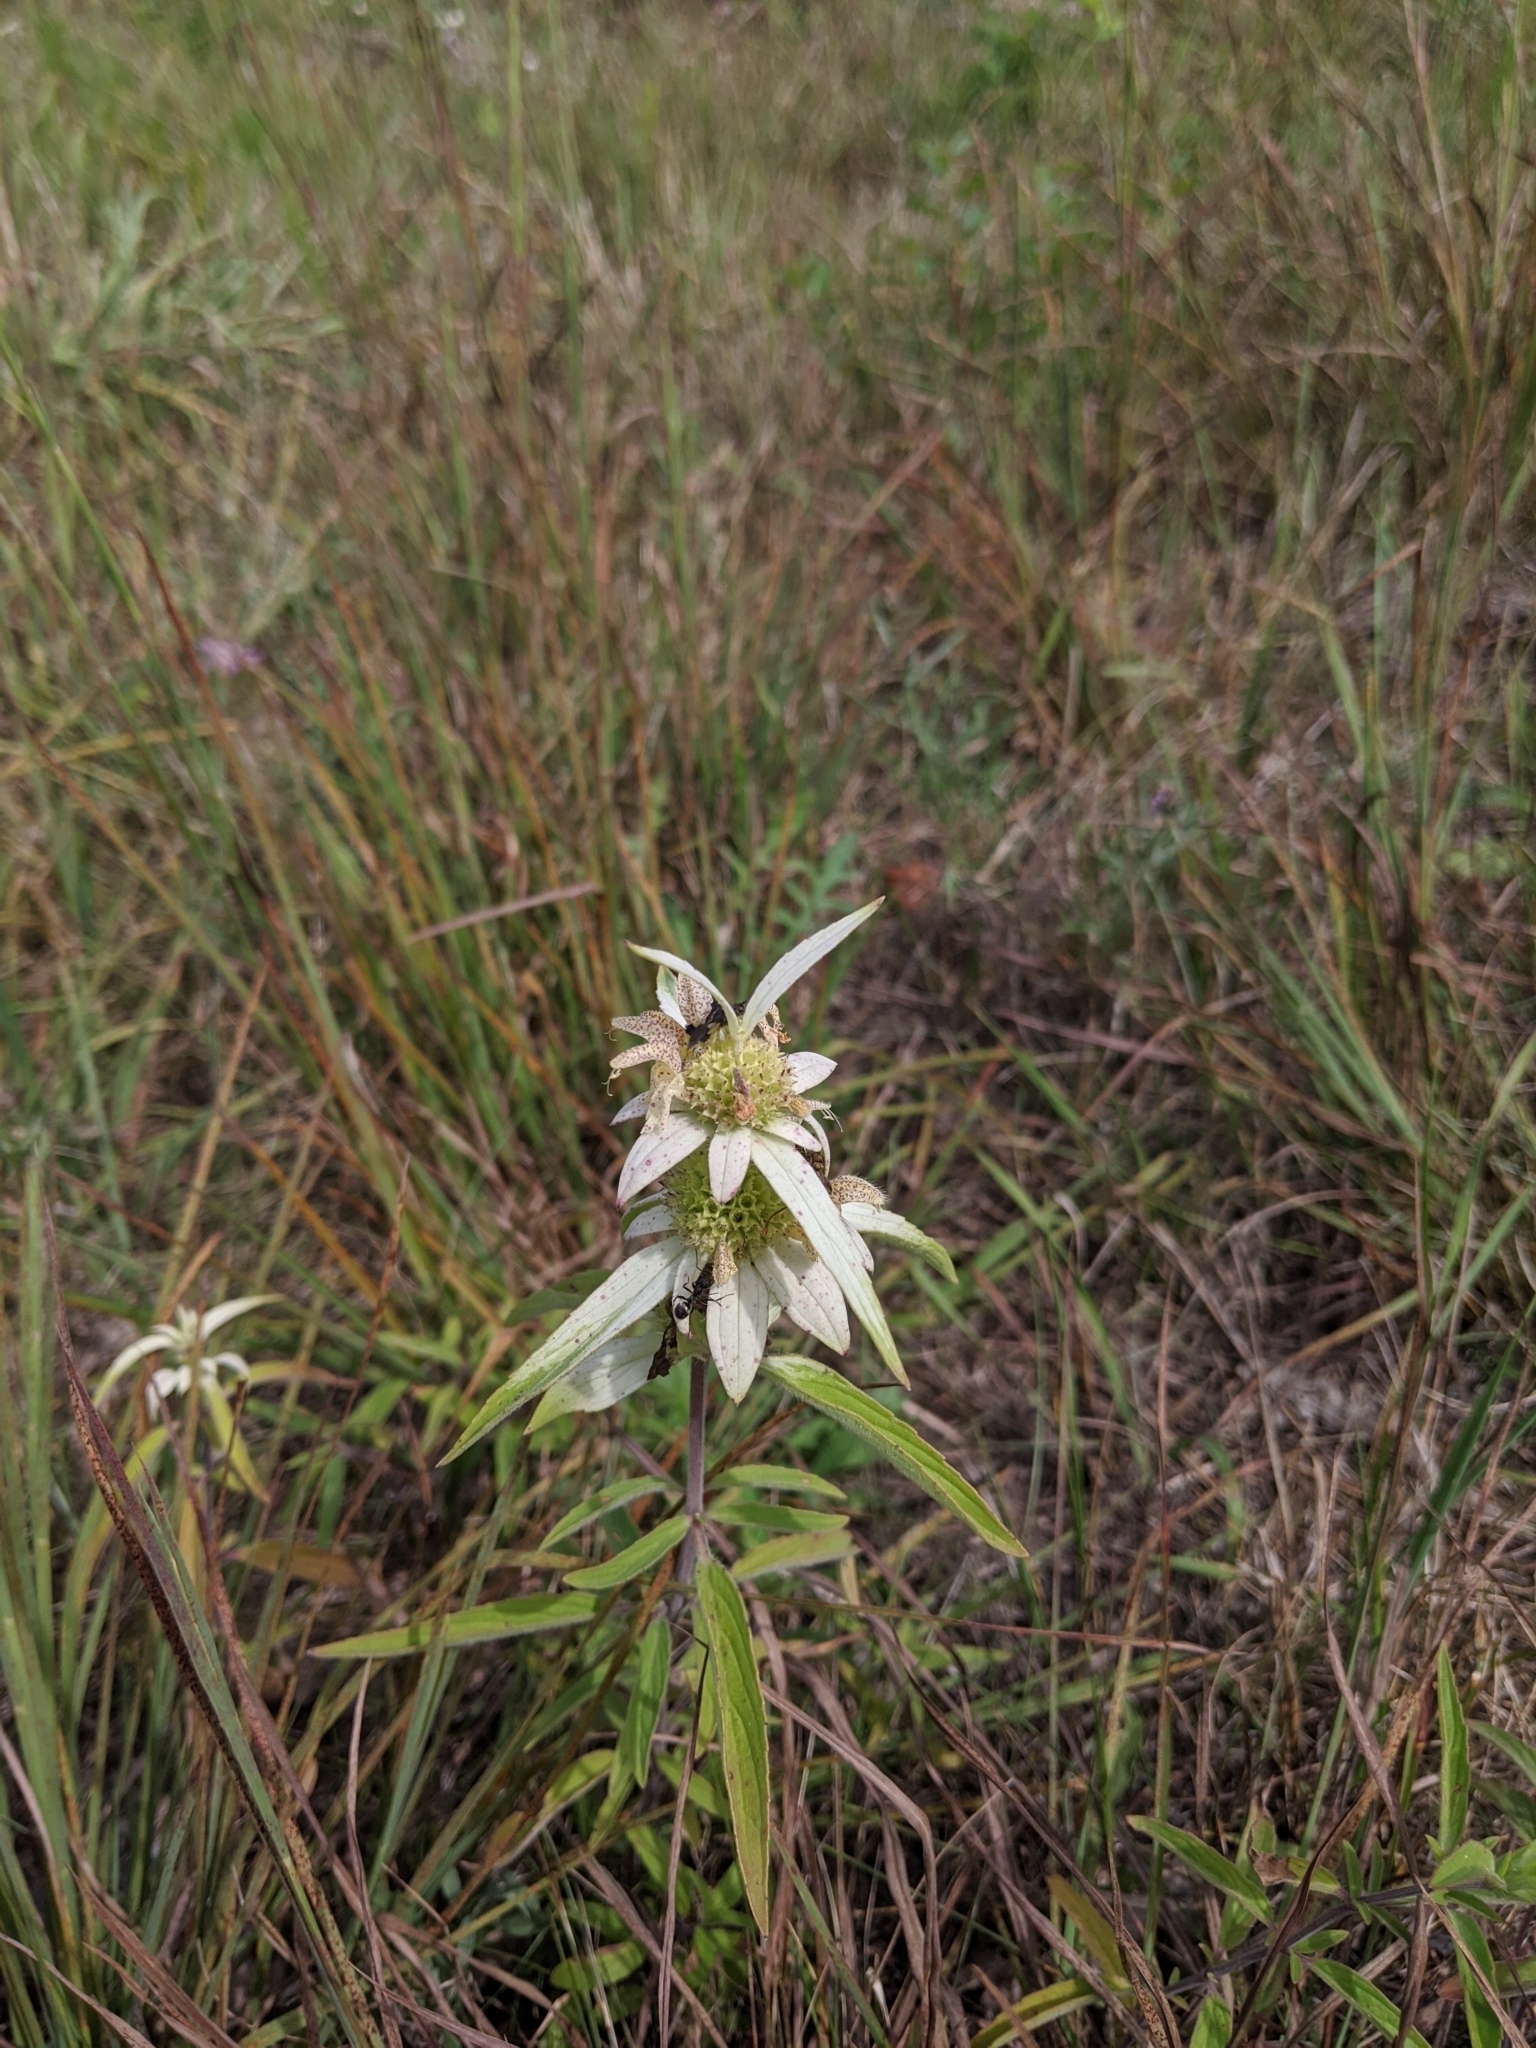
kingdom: Plantae
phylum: Tracheophyta
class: Magnoliopsida
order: Lamiales
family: Lamiaceae
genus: Monarda
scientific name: Monarda punctata
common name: Dotted monarda
